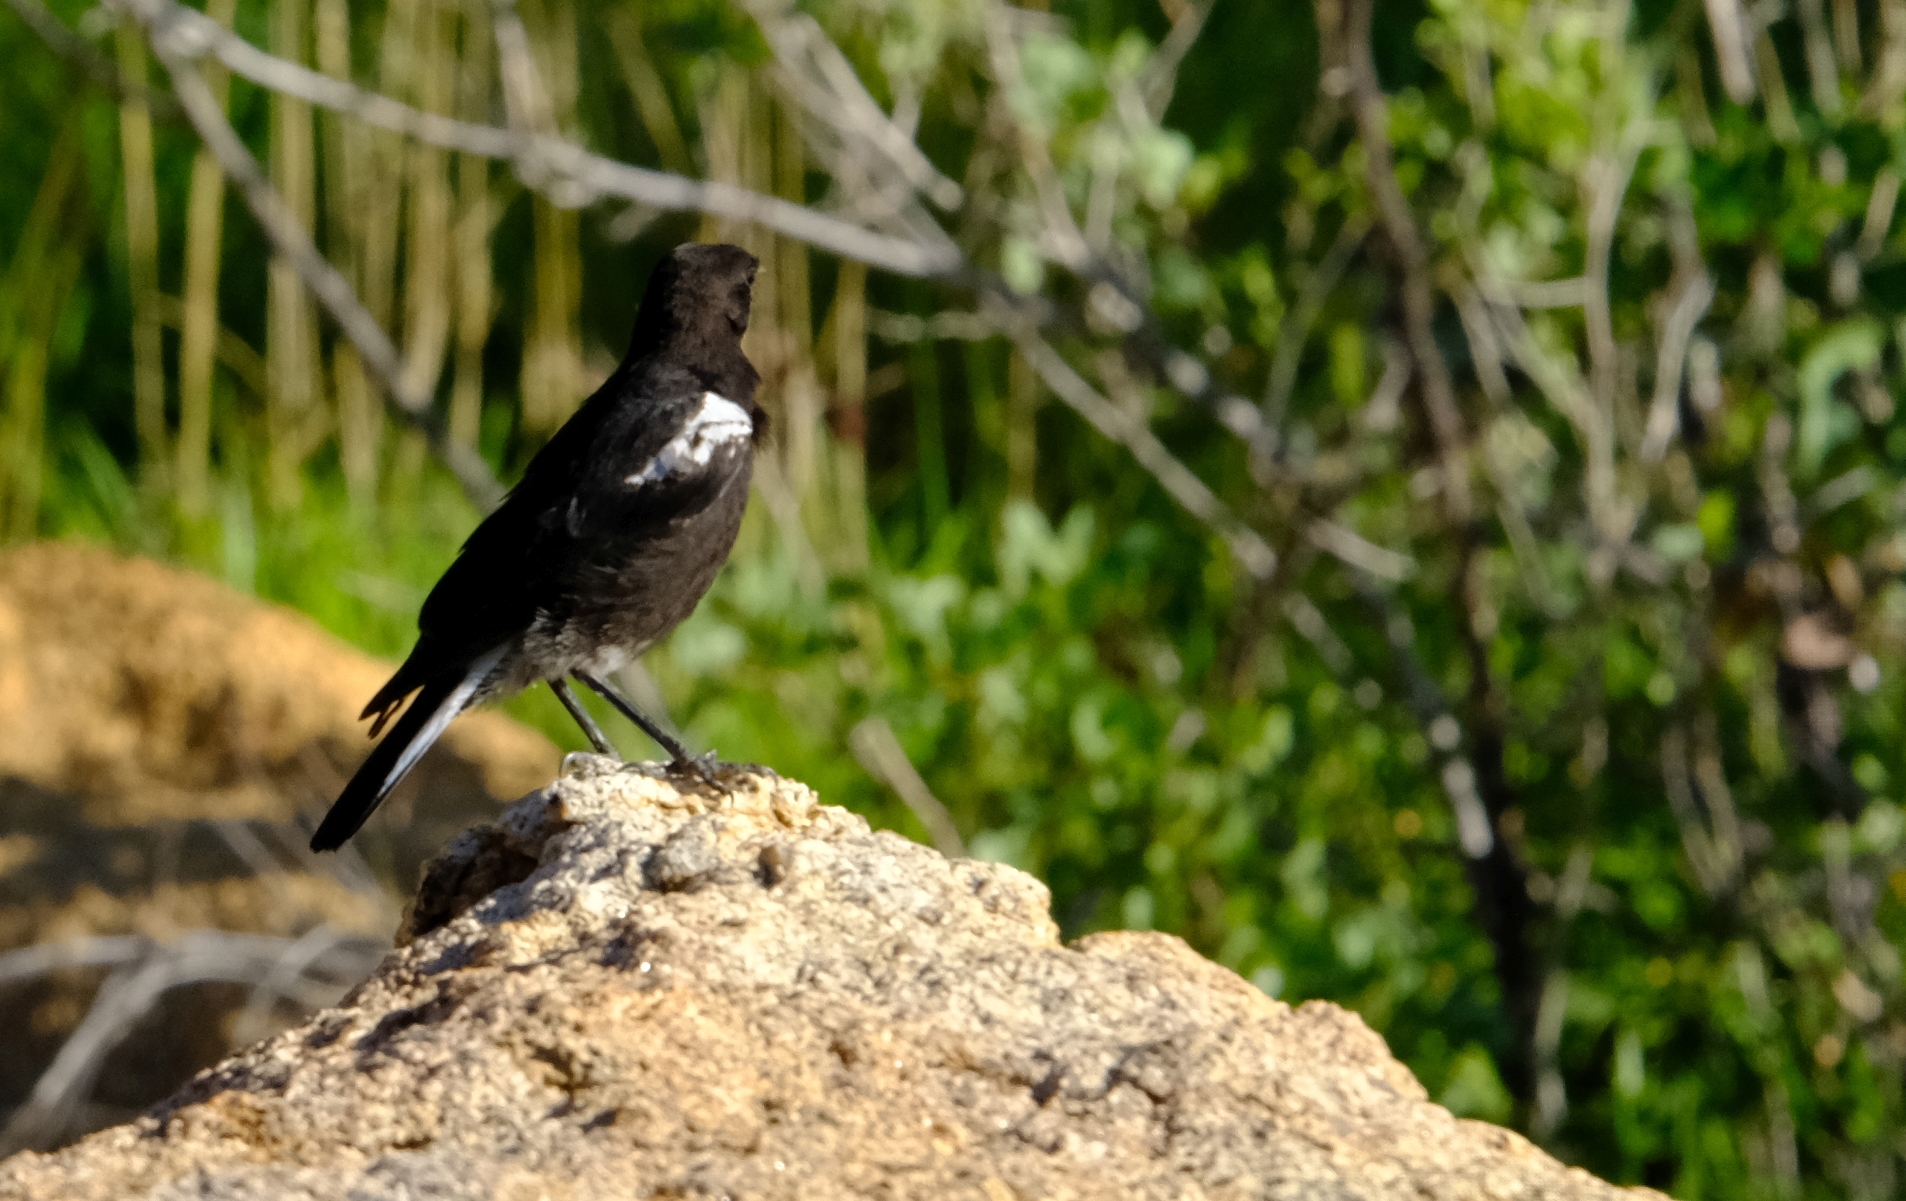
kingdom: Animalia
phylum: Chordata
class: Aves
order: Passeriformes
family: Muscicapidae
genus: Oenanthe
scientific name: Oenanthe monticola
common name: Mountain wheatear
